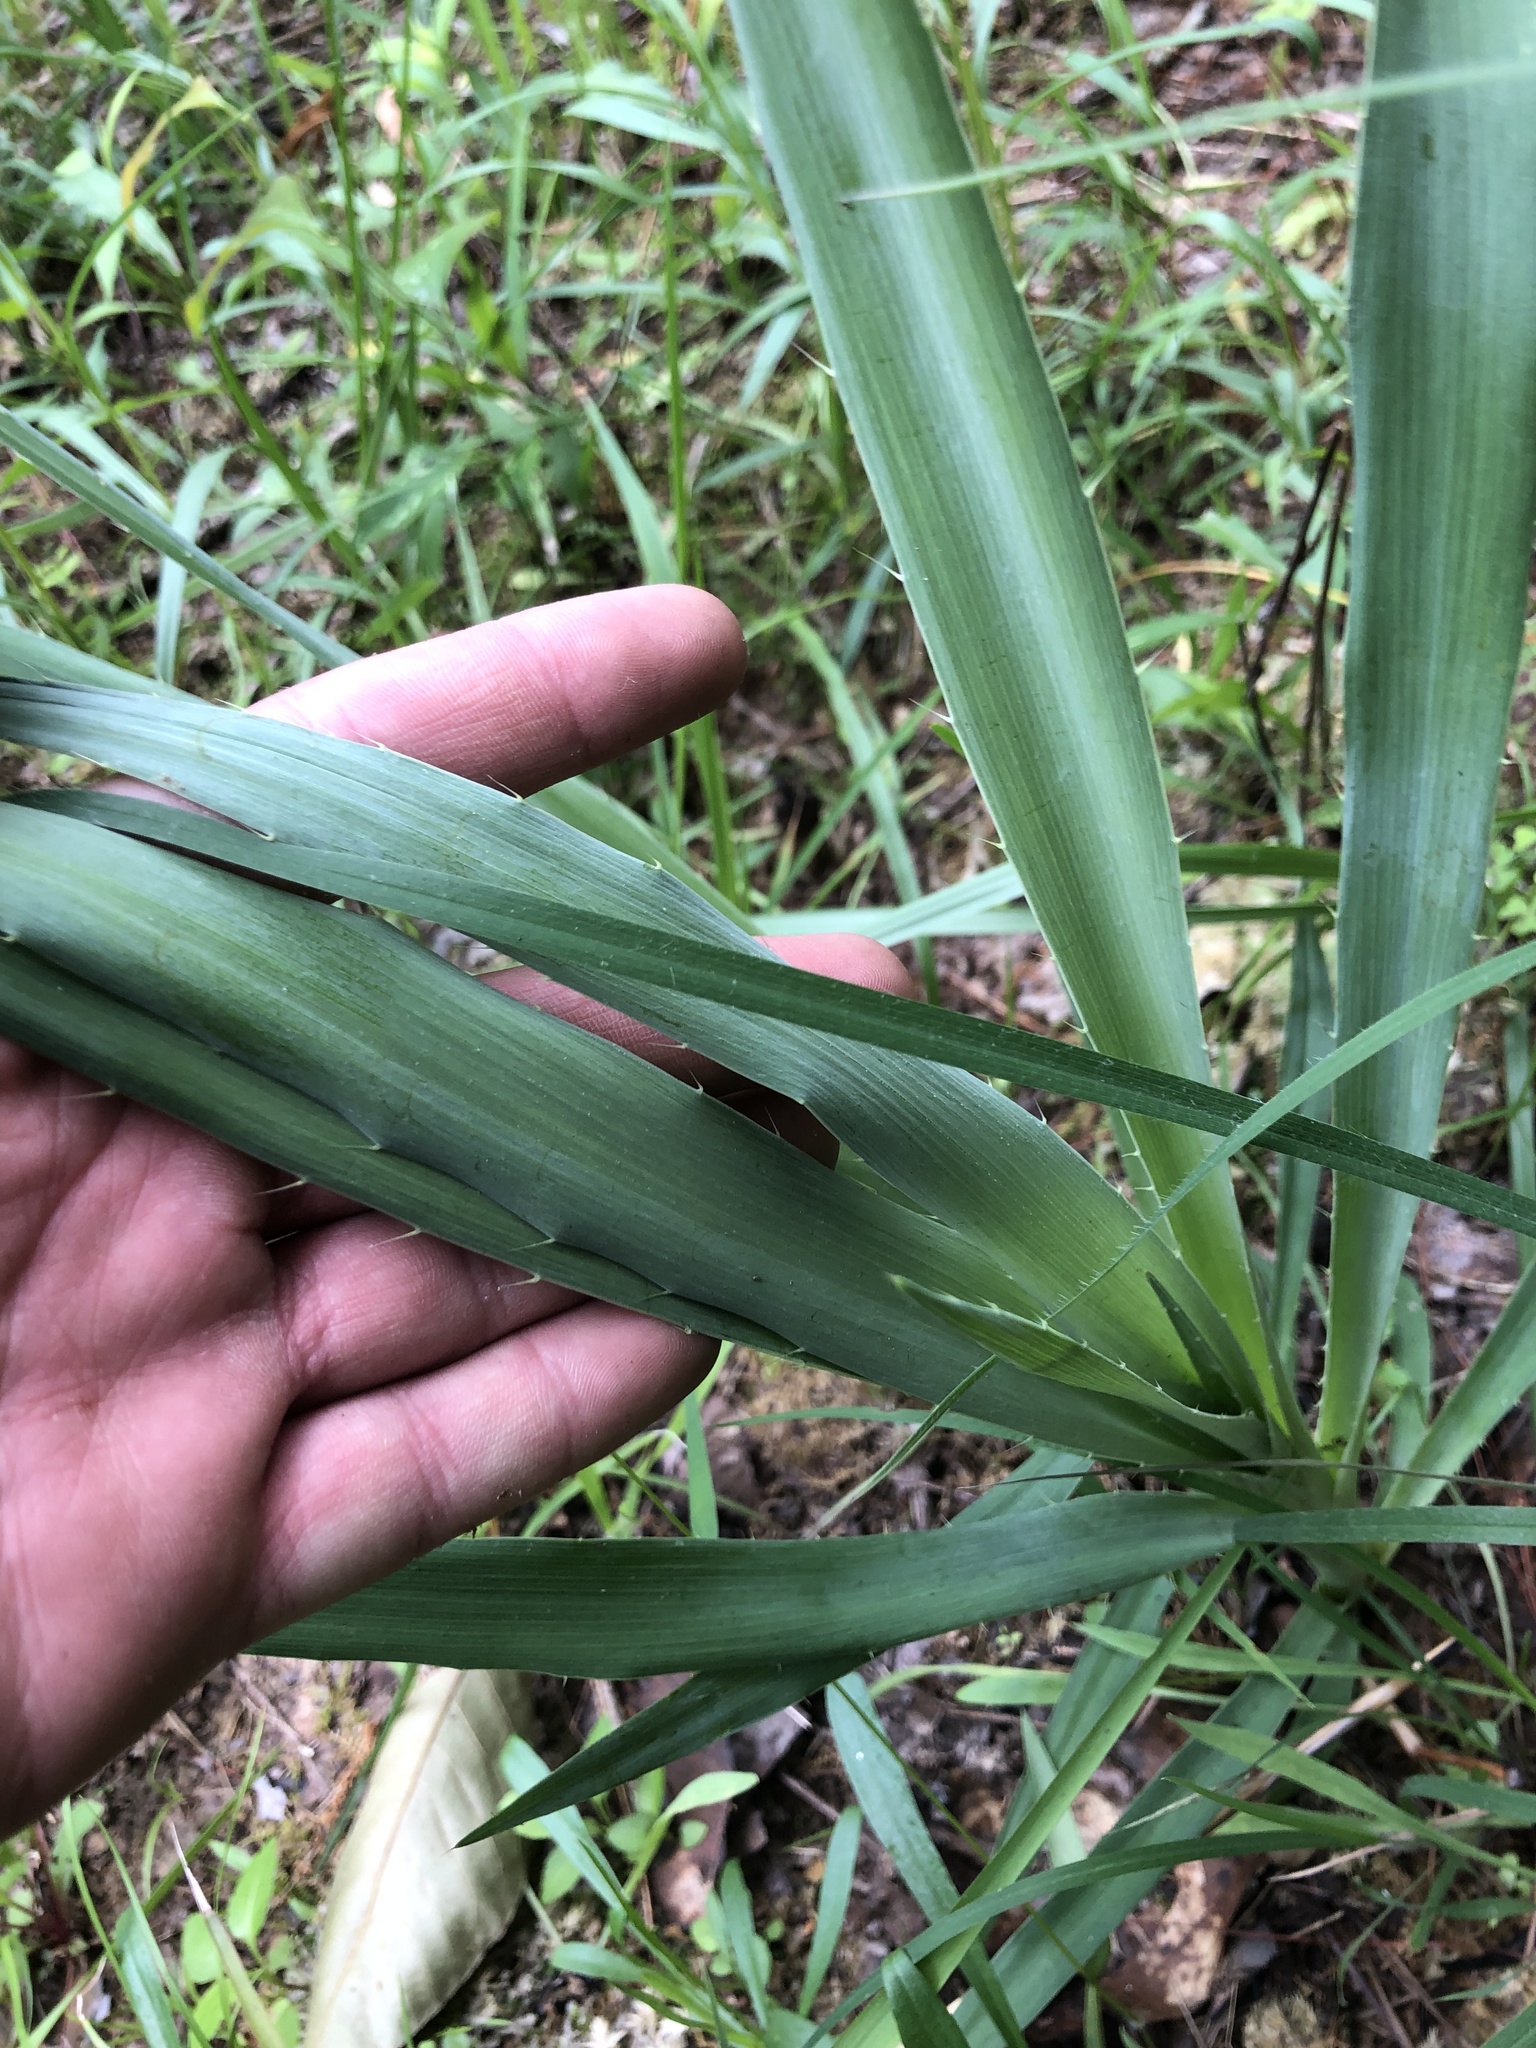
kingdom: Plantae
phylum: Tracheophyta
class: Magnoliopsida
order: Apiales
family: Apiaceae
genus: Eryngium
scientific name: Eryngium yuccifolium
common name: Button eryngo
